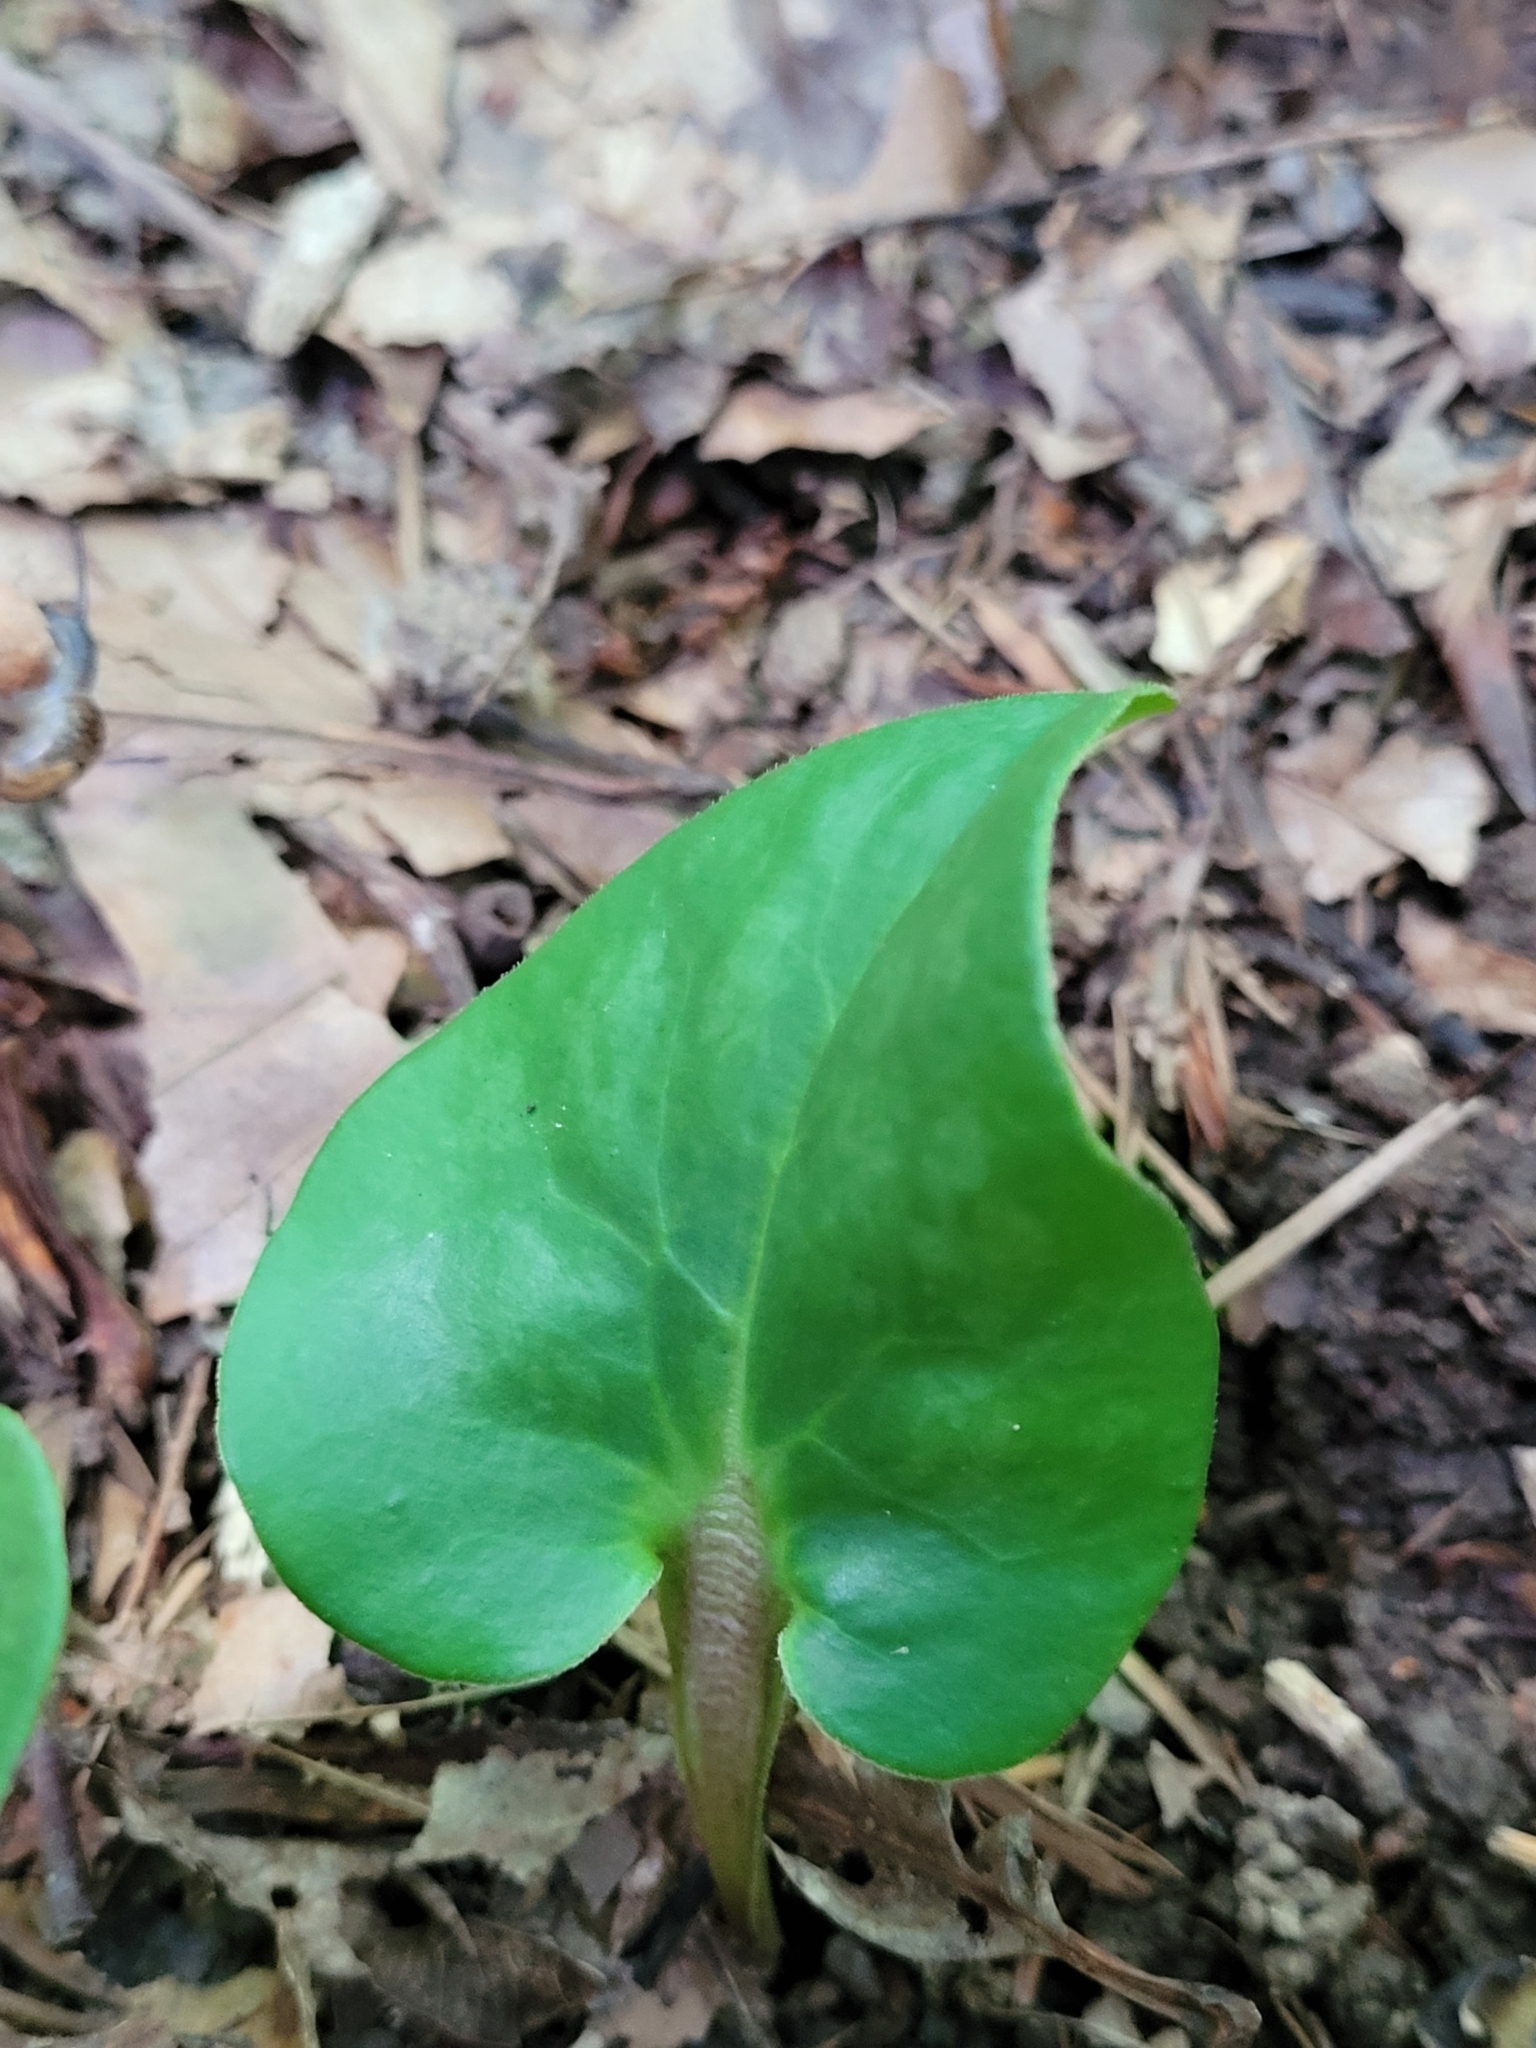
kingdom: Plantae
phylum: Tracheophyta
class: Magnoliopsida
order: Piperales
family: Aristolochiaceae
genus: Hexastylis
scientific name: Hexastylis arifolia
